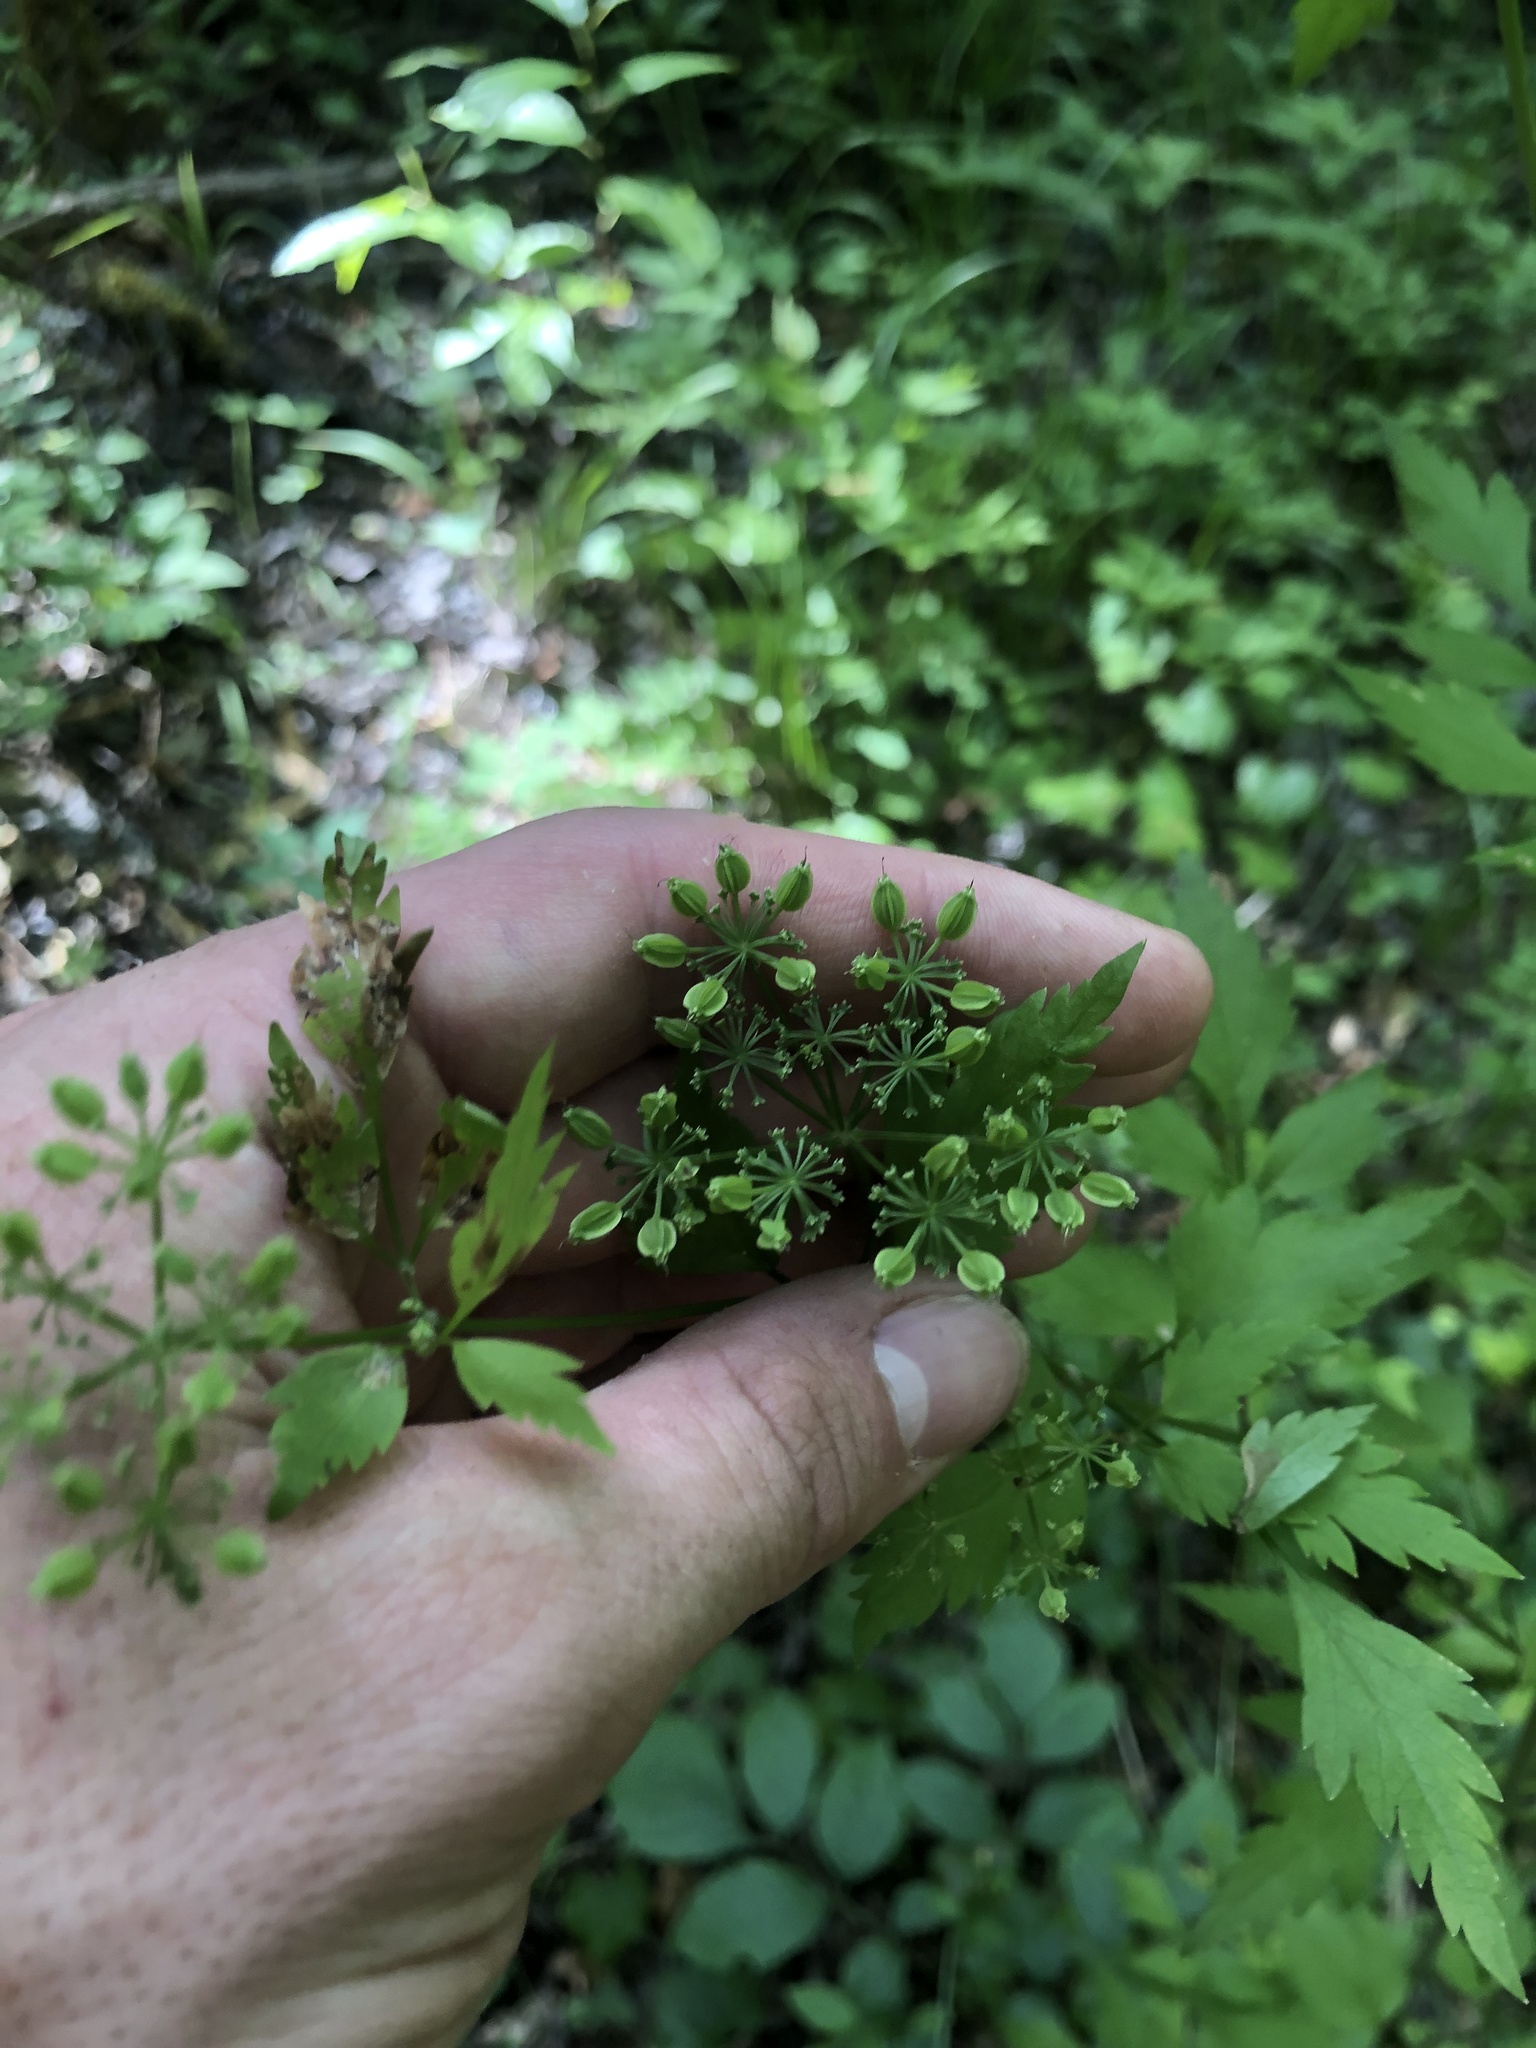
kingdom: Plantae
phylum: Tracheophyta
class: Magnoliopsida
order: Apiales
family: Apiaceae
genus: Thaspium
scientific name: Thaspium barbinode
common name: Bearded meadow-parsnip
